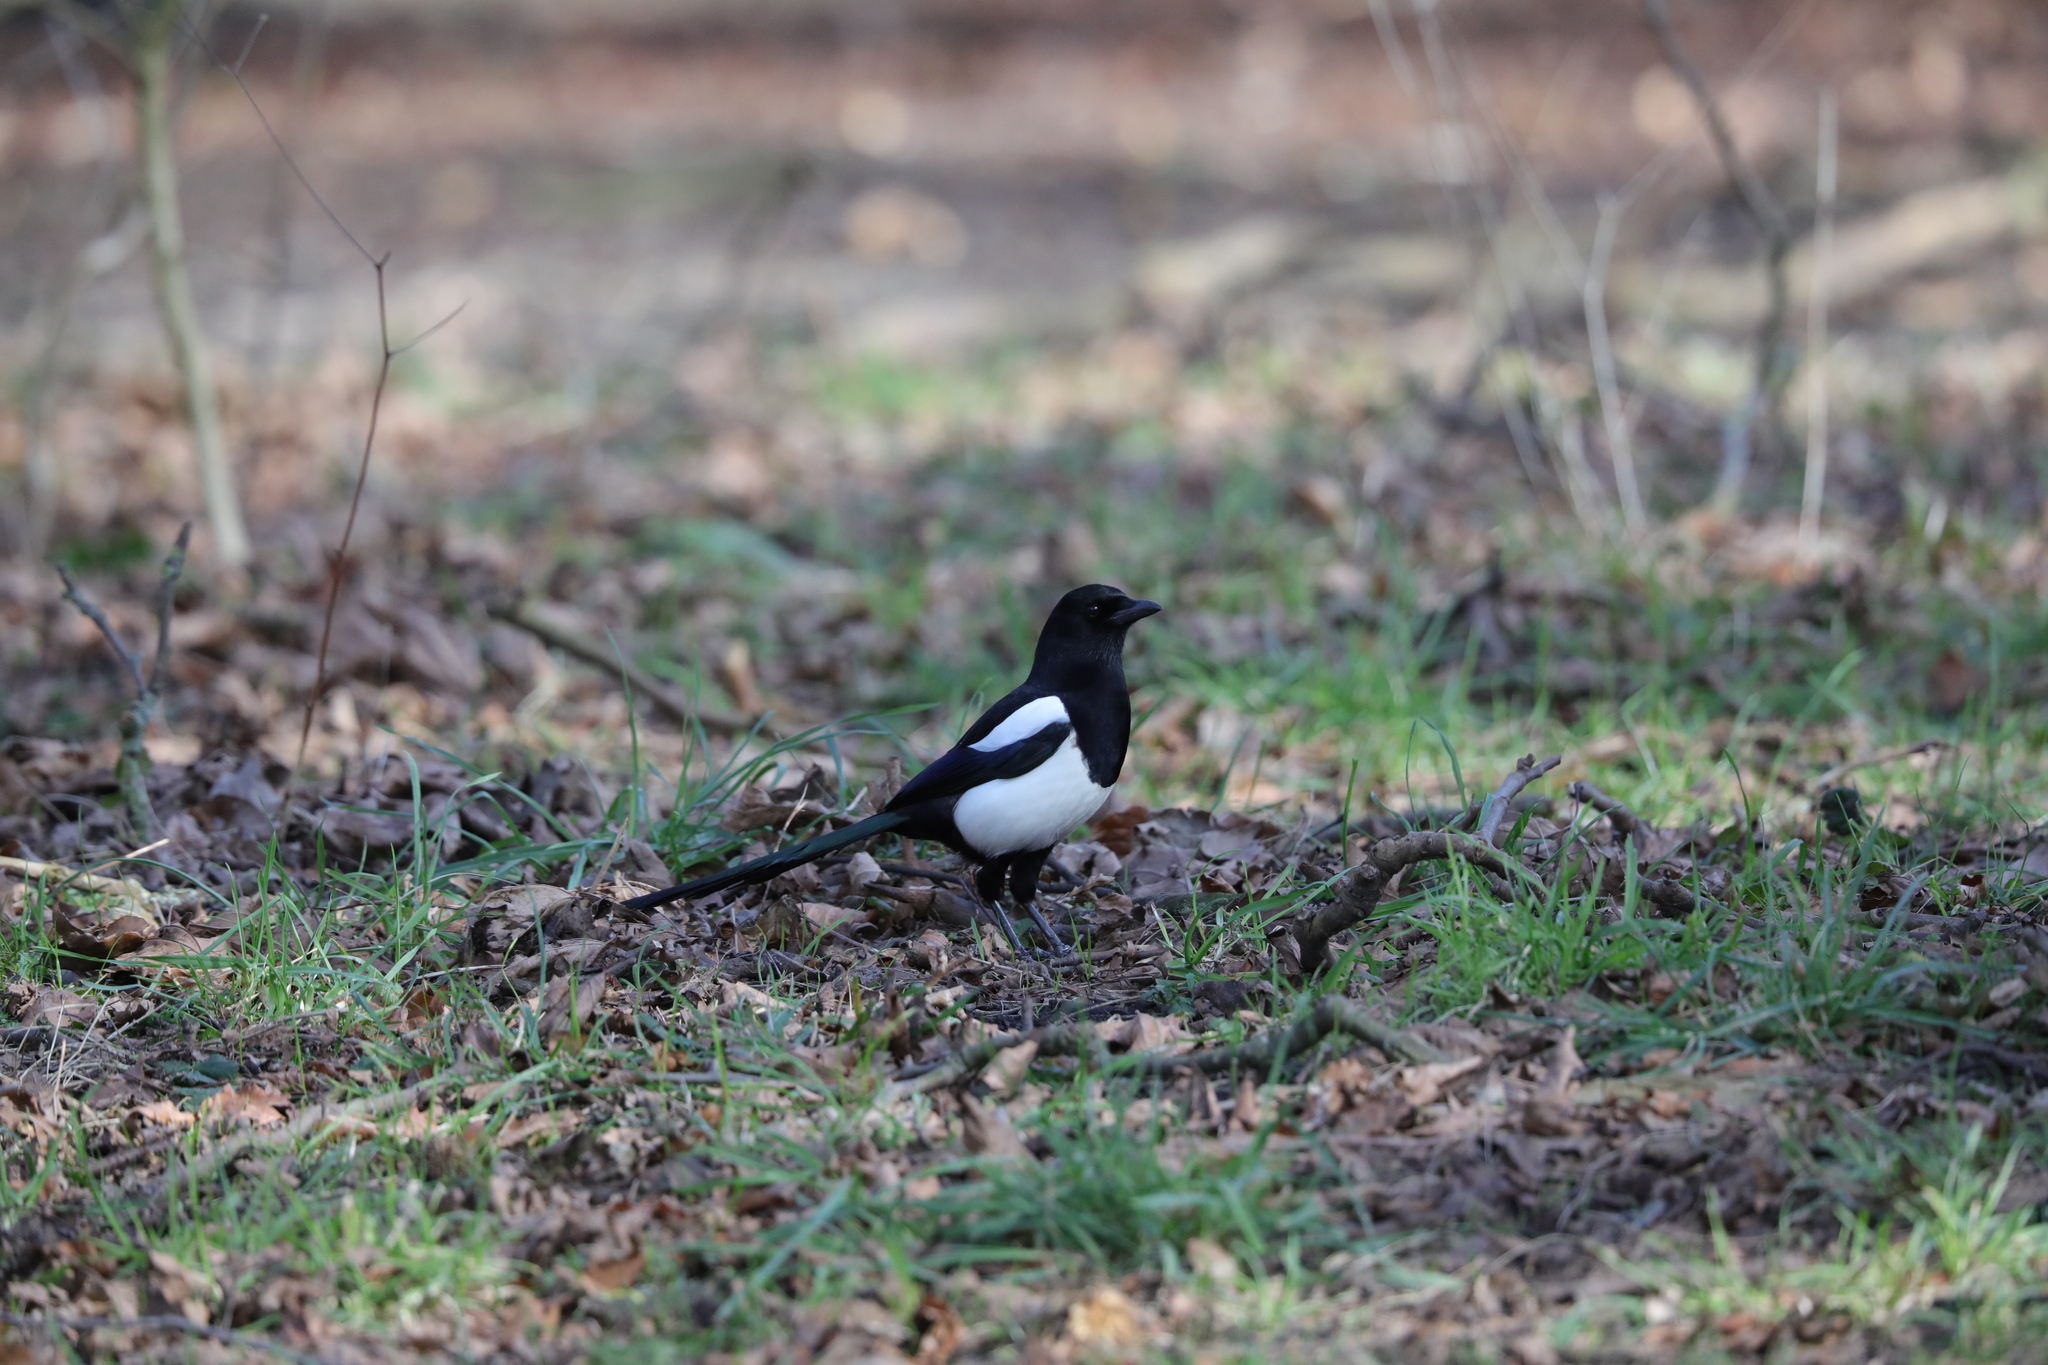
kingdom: Animalia
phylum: Chordata
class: Aves
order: Passeriformes
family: Corvidae
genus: Pica
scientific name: Pica pica
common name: Eurasian magpie
